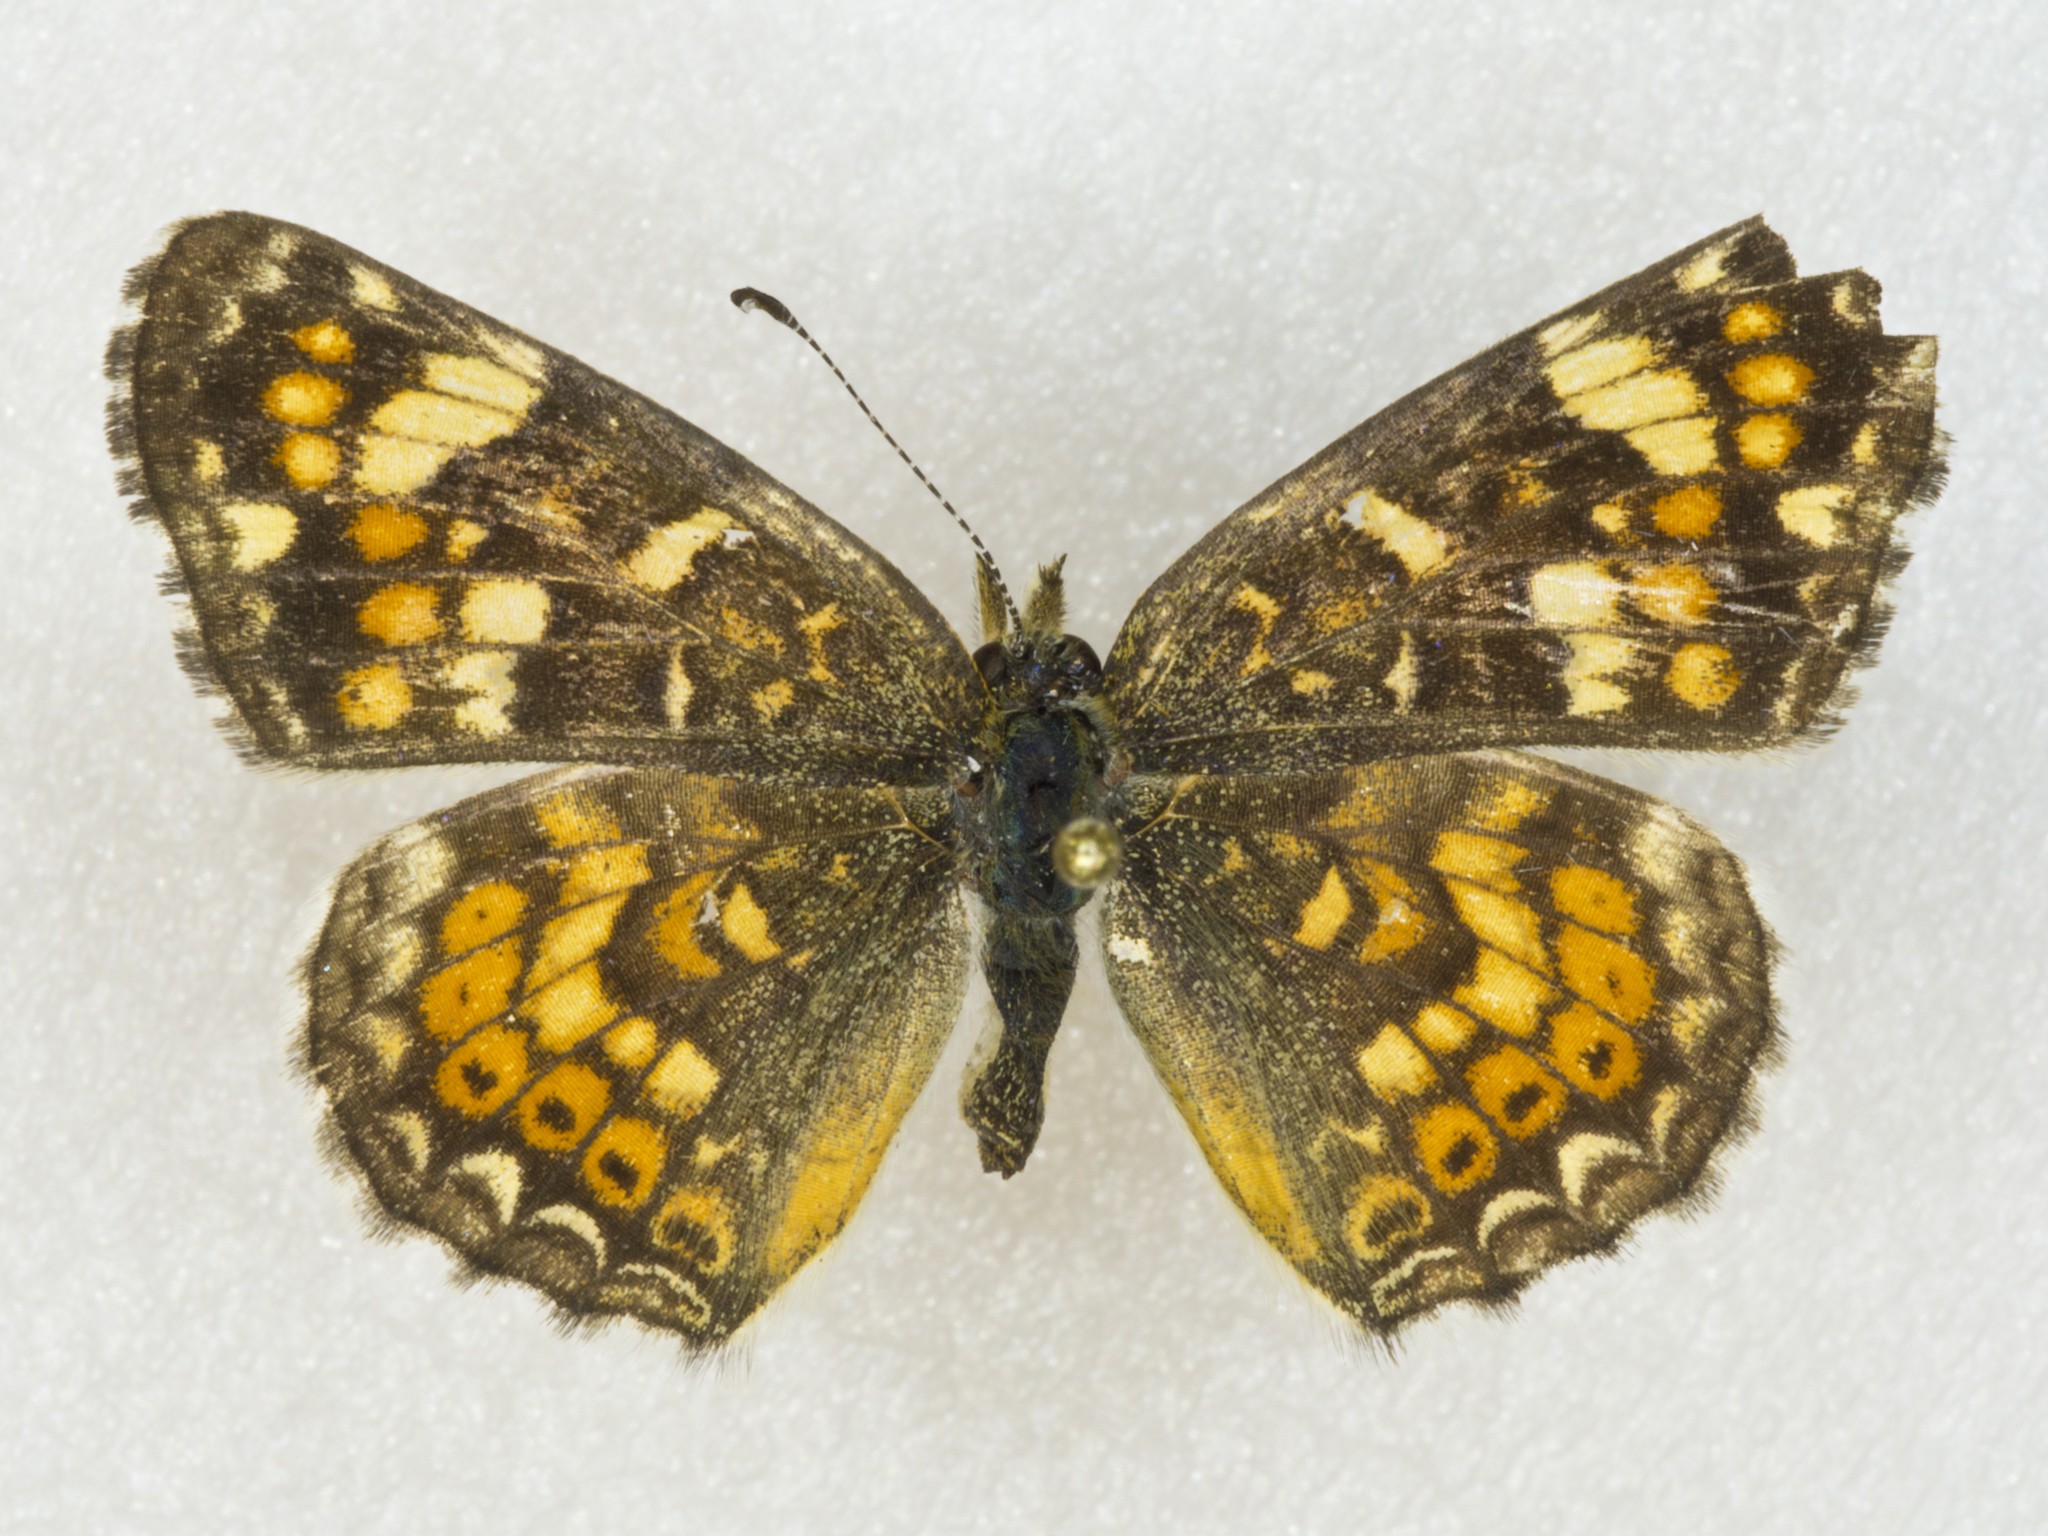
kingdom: Animalia
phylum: Arthropoda
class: Insecta
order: Lepidoptera
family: Nymphalidae
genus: Phyciodes
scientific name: Phyciodes tharos
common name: Pearl crescent
